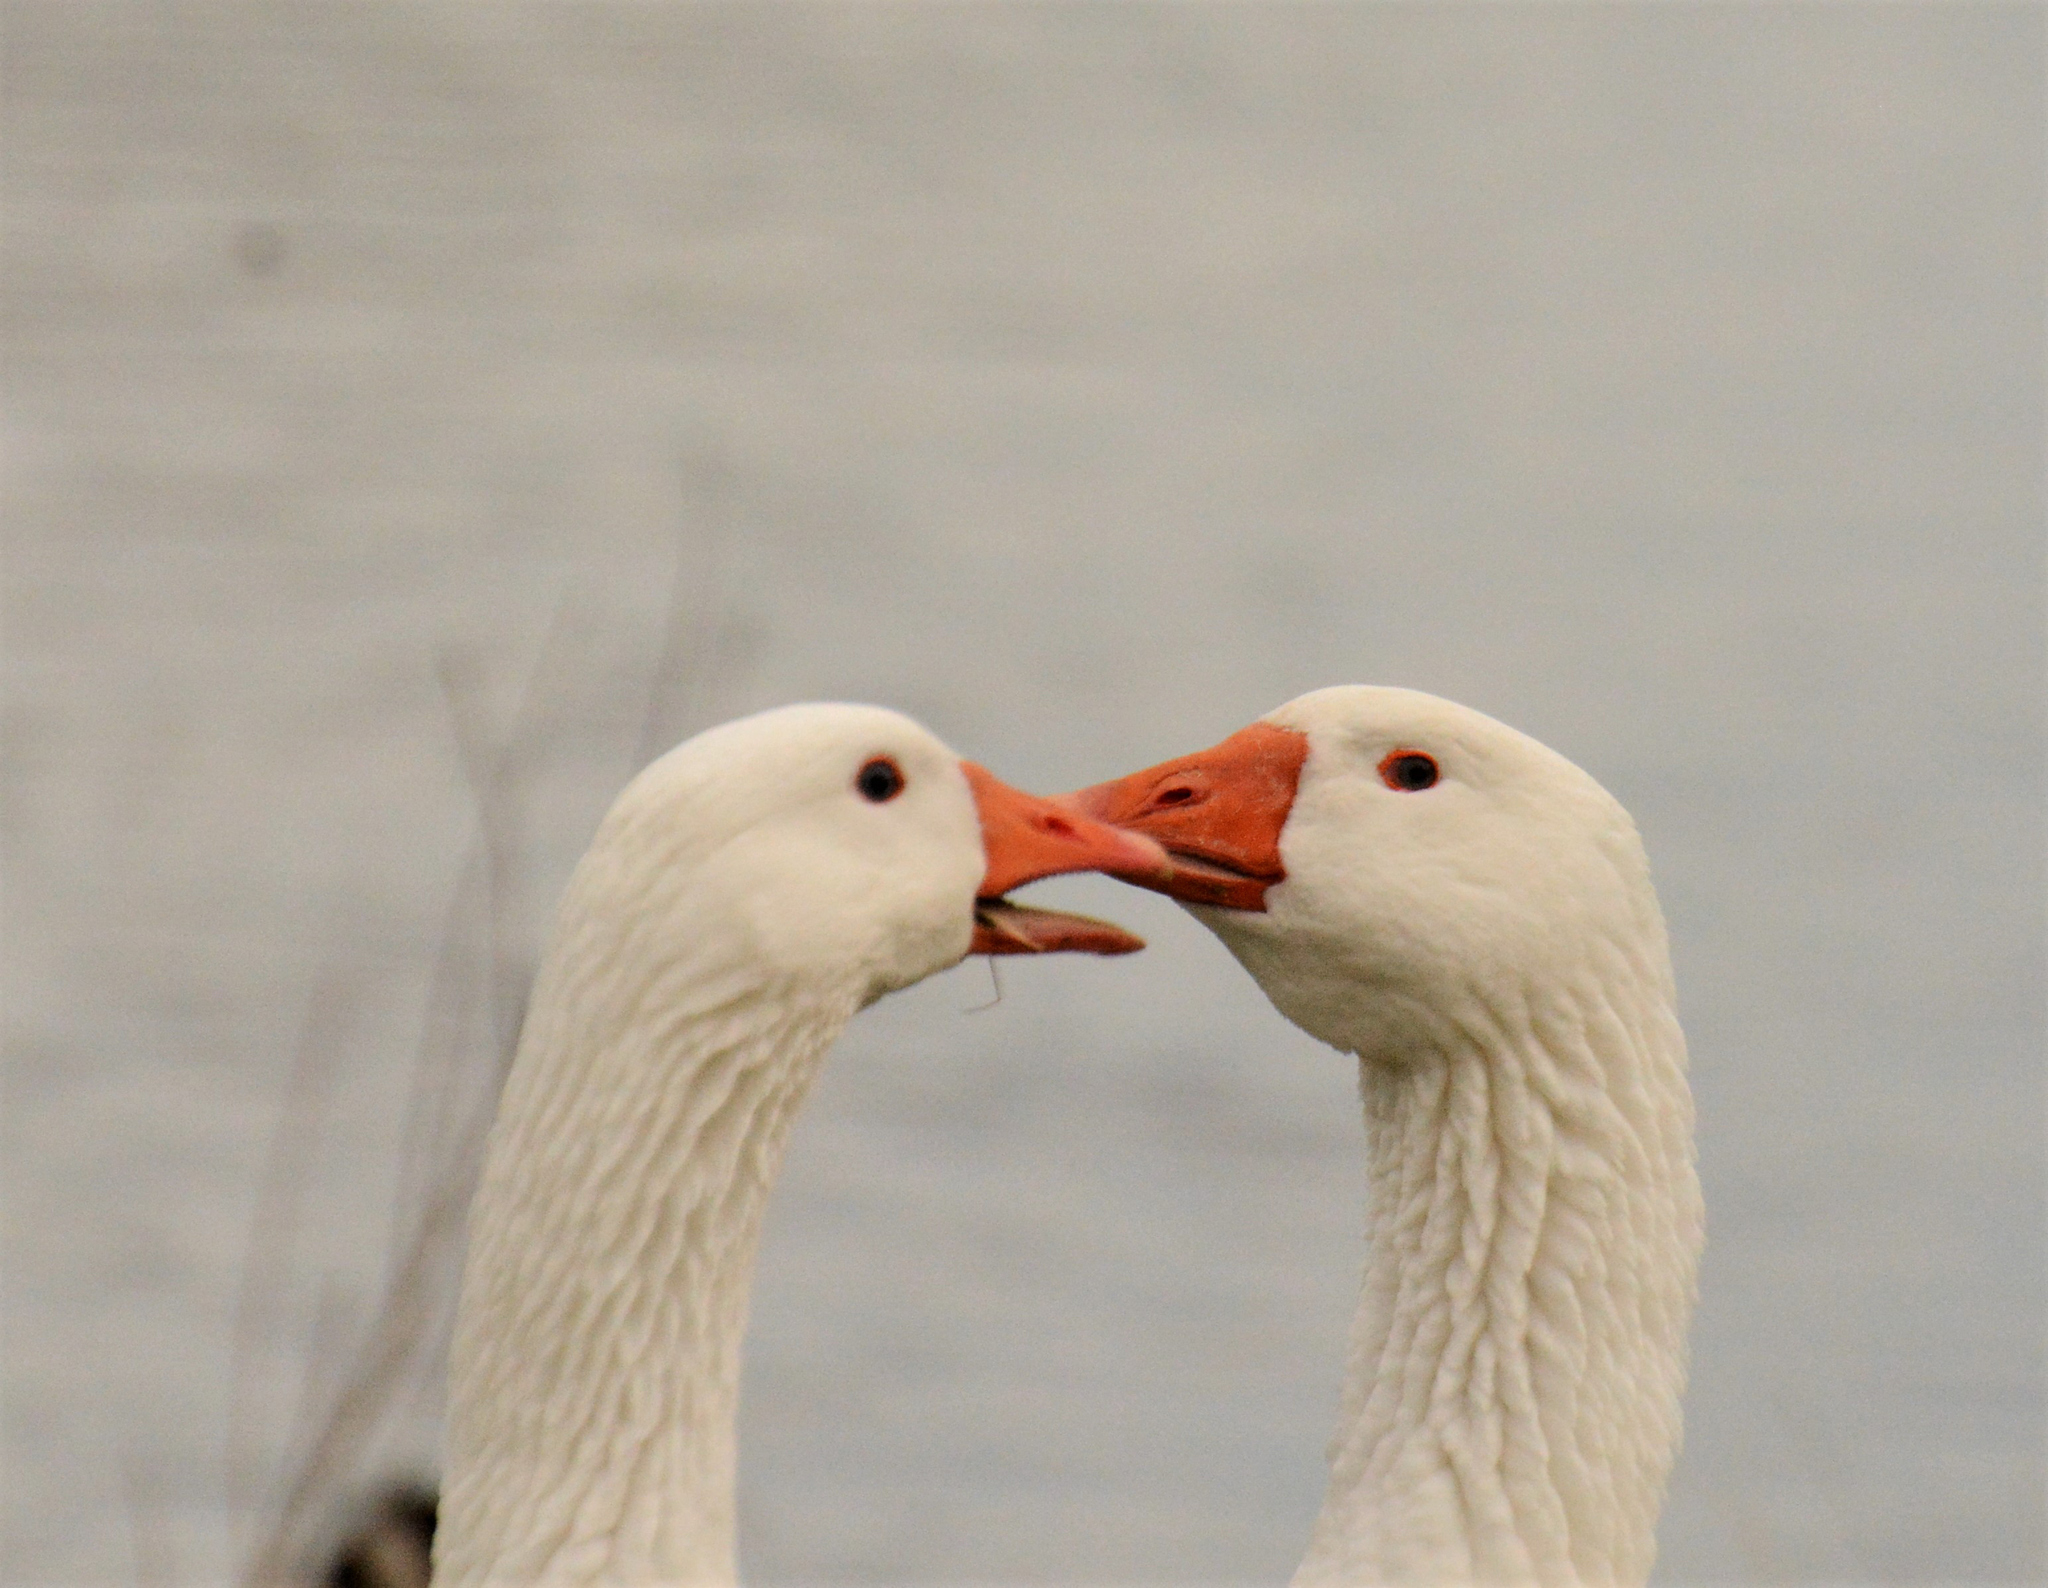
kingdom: Animalia
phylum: Chordata
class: Aves
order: Anseriformes
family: Anatidae
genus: Anser
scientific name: Anser anser
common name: Greylag goose
